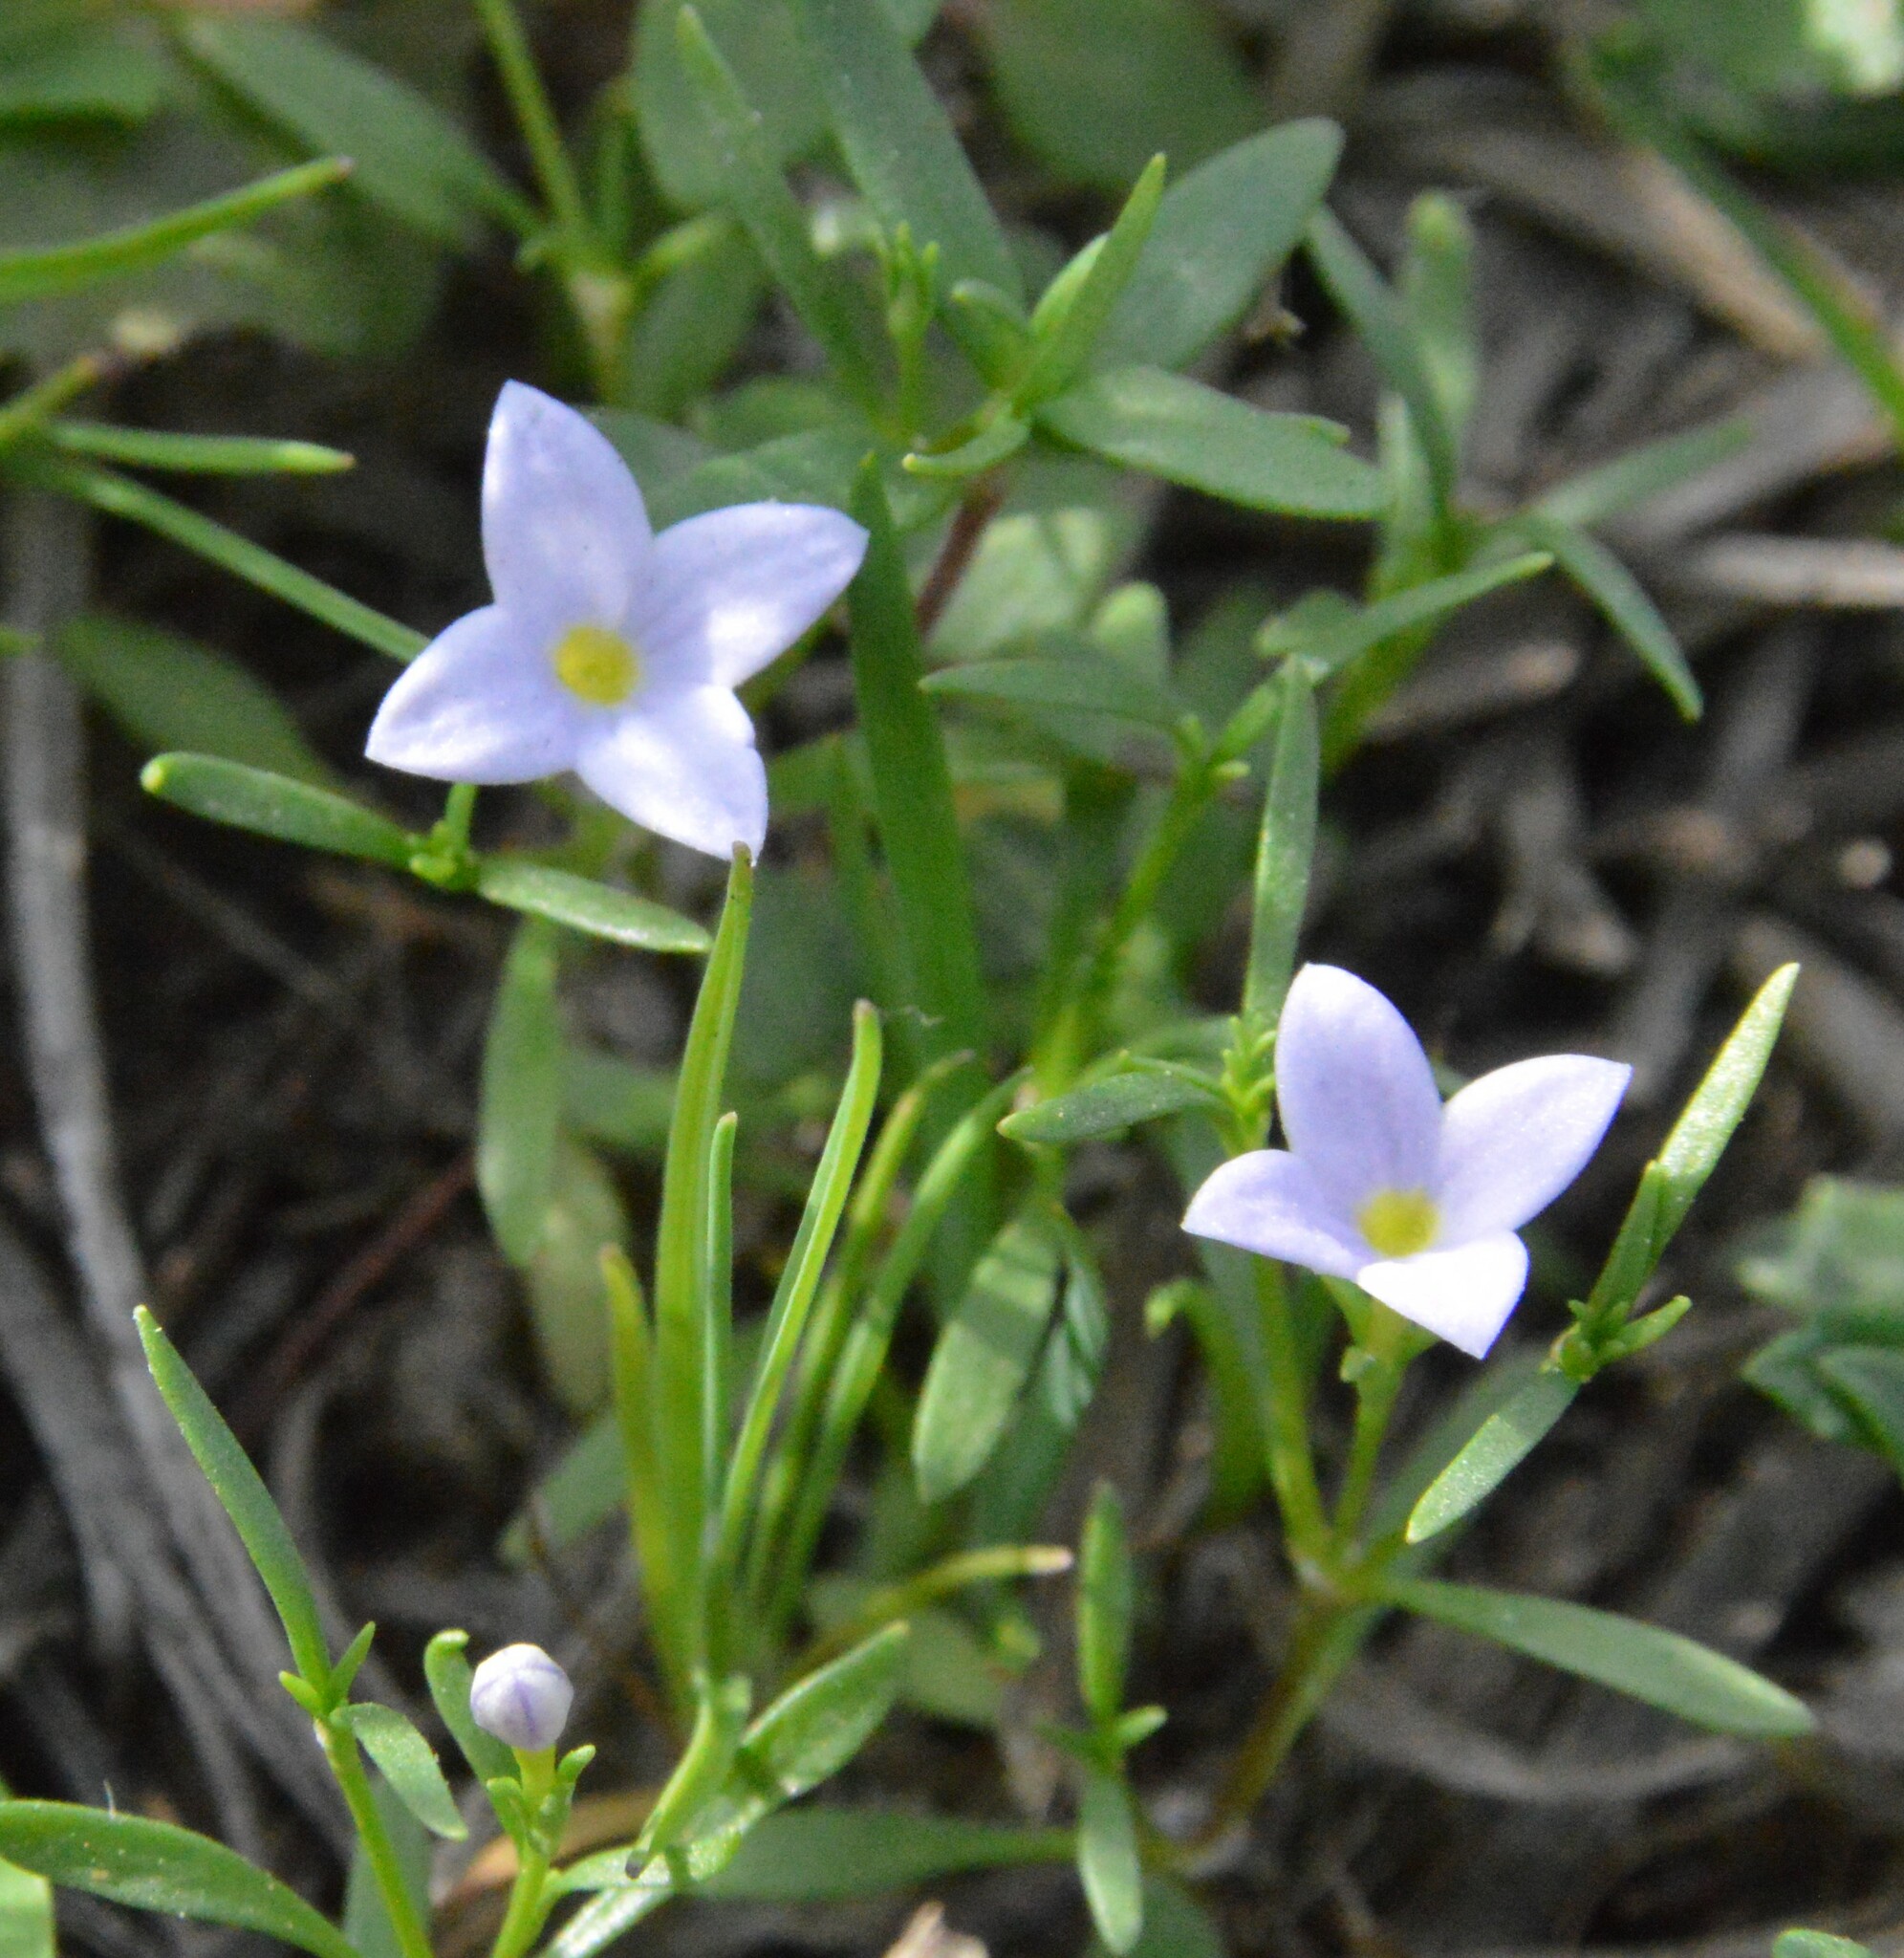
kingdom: Plantae
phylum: Tracheophyta
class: Magnoliopsida
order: Gentianales
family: Rubiaceae
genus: Houstonia
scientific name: Houstonia rosea
